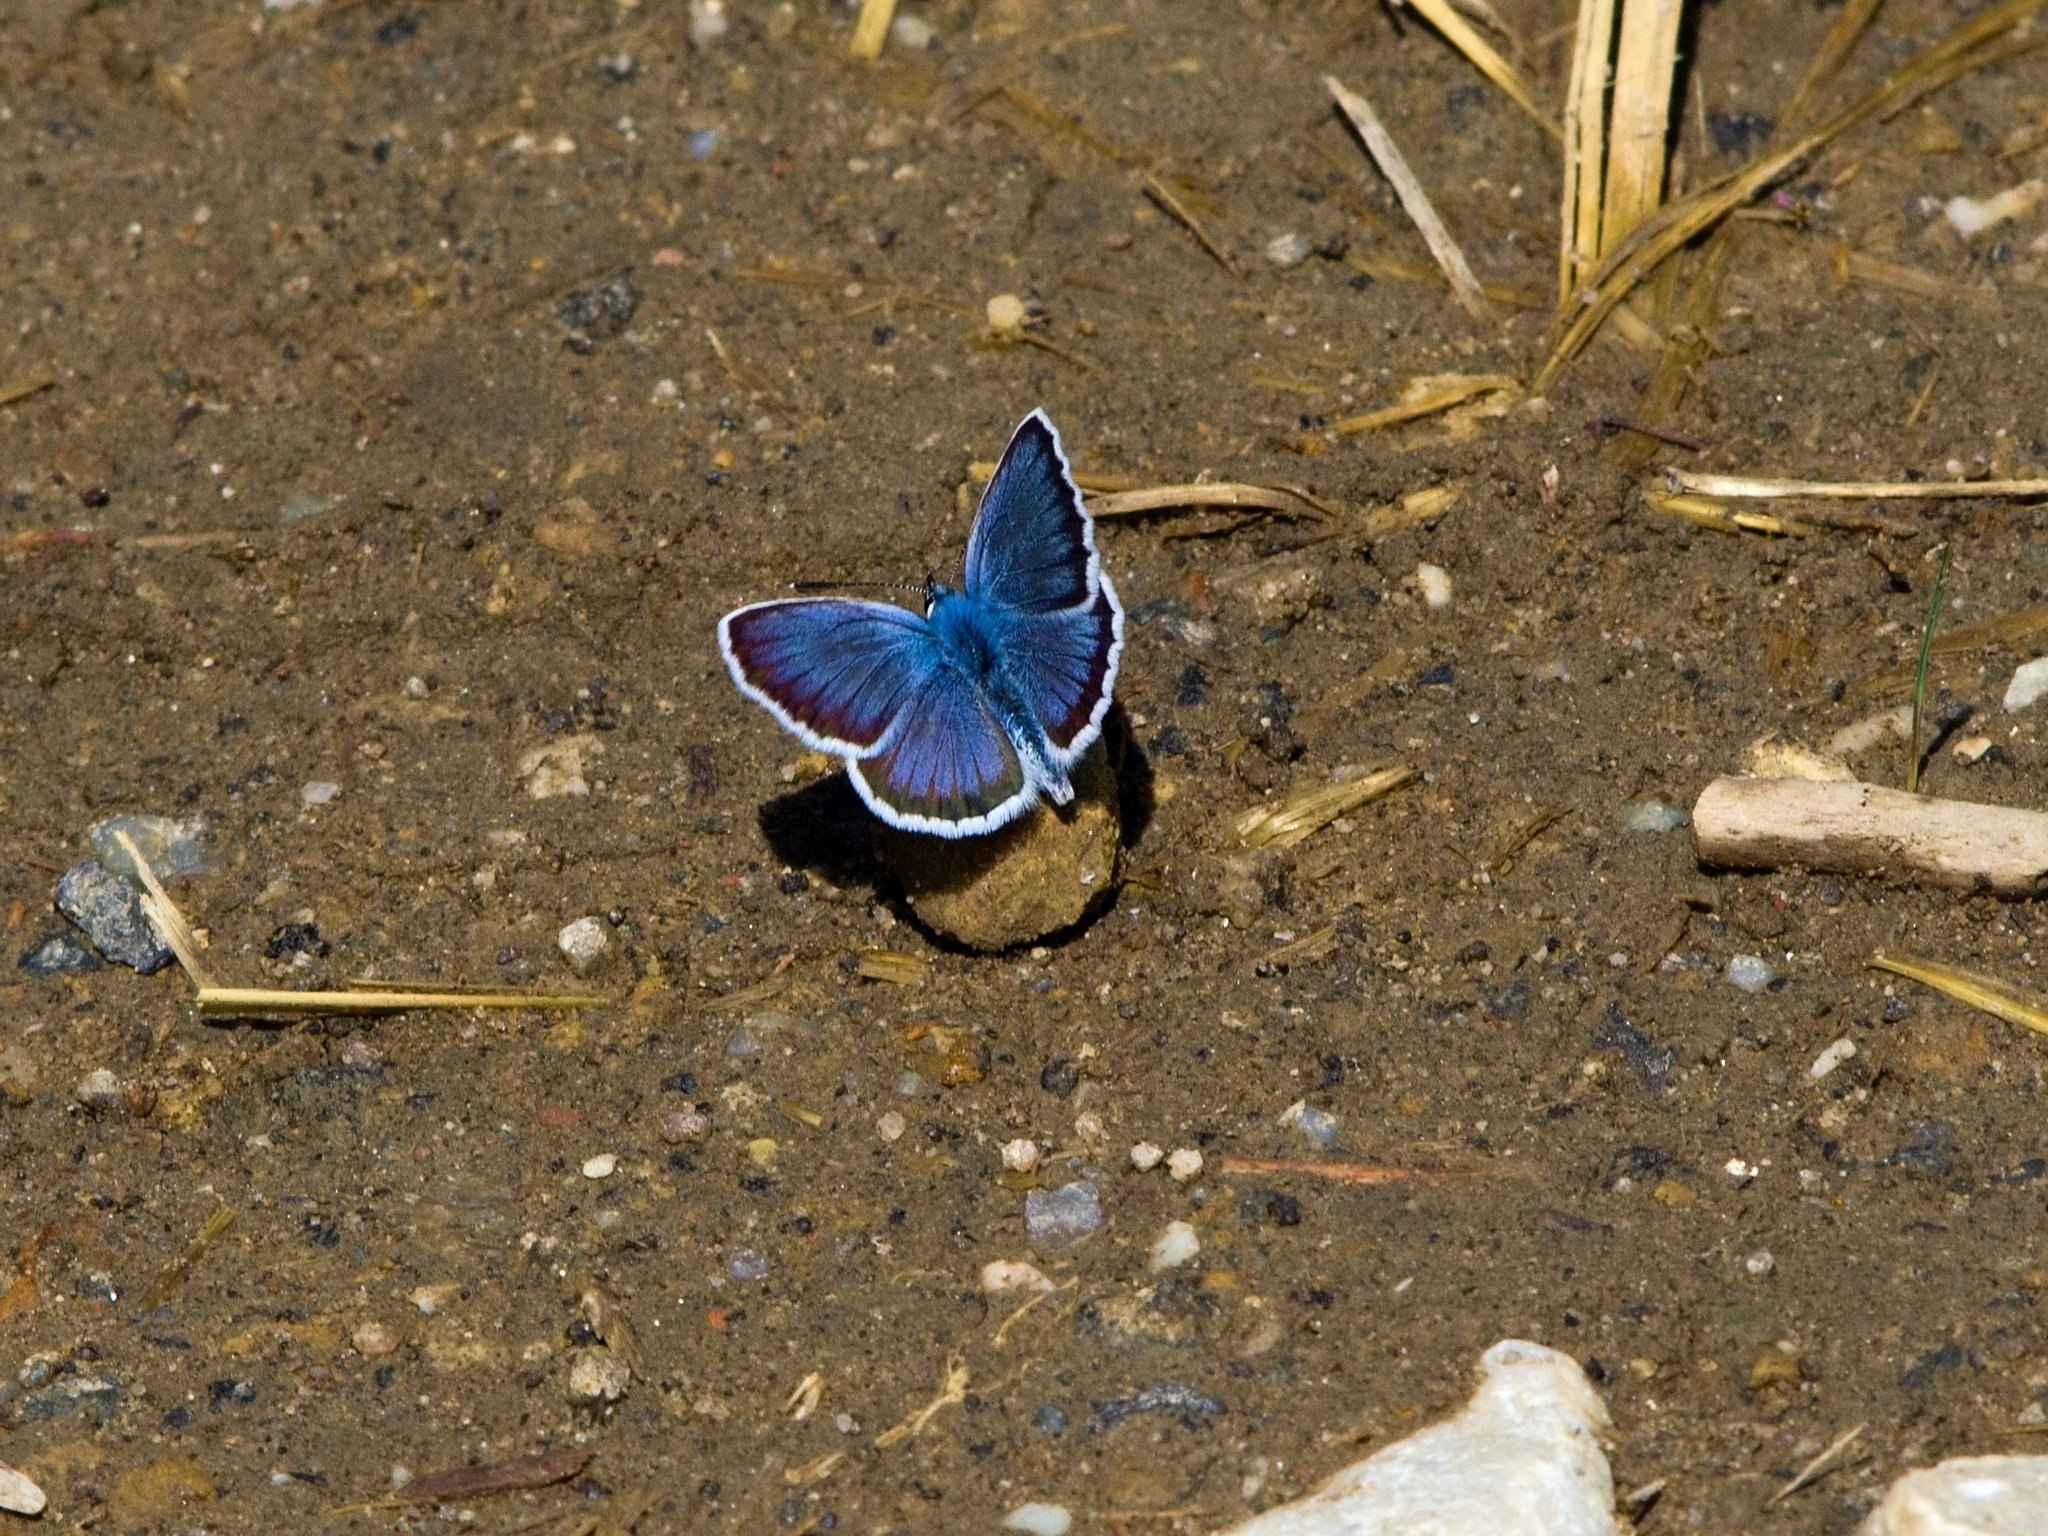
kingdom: Animalia
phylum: Arthropoda
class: Insecta
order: Lepidoptera
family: Lycaenidae
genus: Plebejus
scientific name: Plebejus argus
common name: Silver-studded blue
